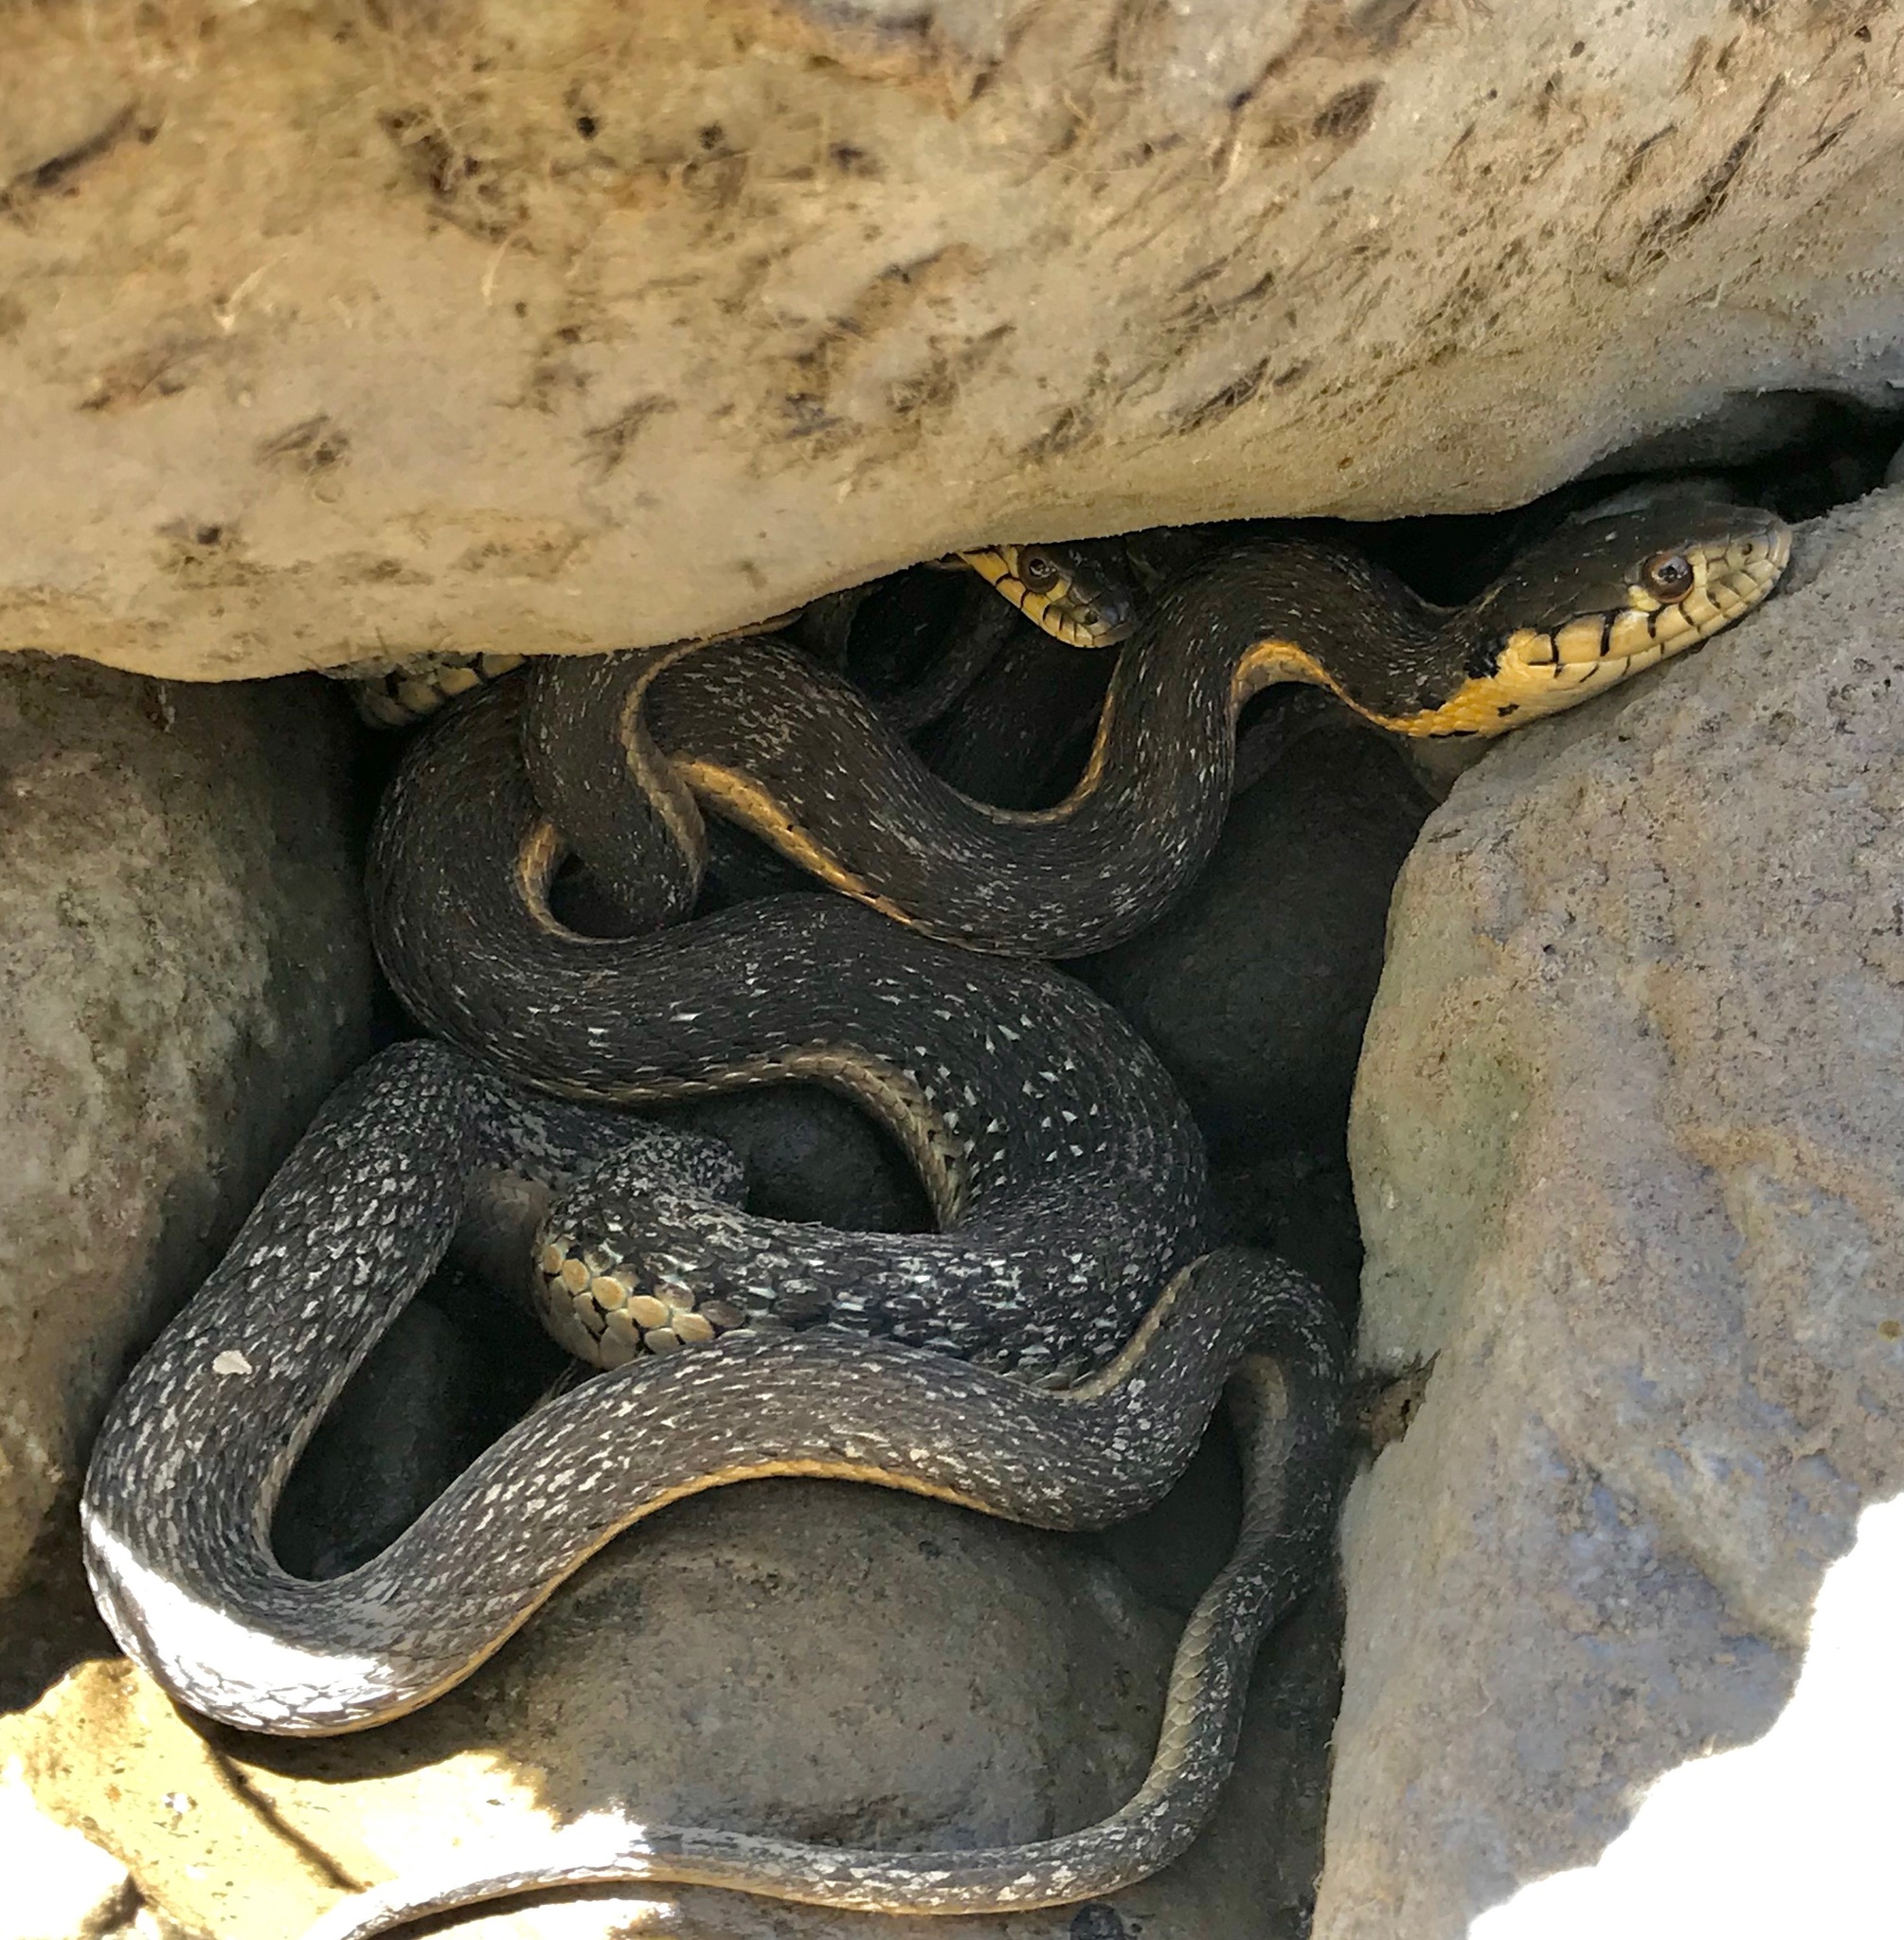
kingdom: Animalia
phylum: Chordata
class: Squamata
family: Colubridae
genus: Thamnophis
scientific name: Thamnophis hammondii
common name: Two-striped garter snake
